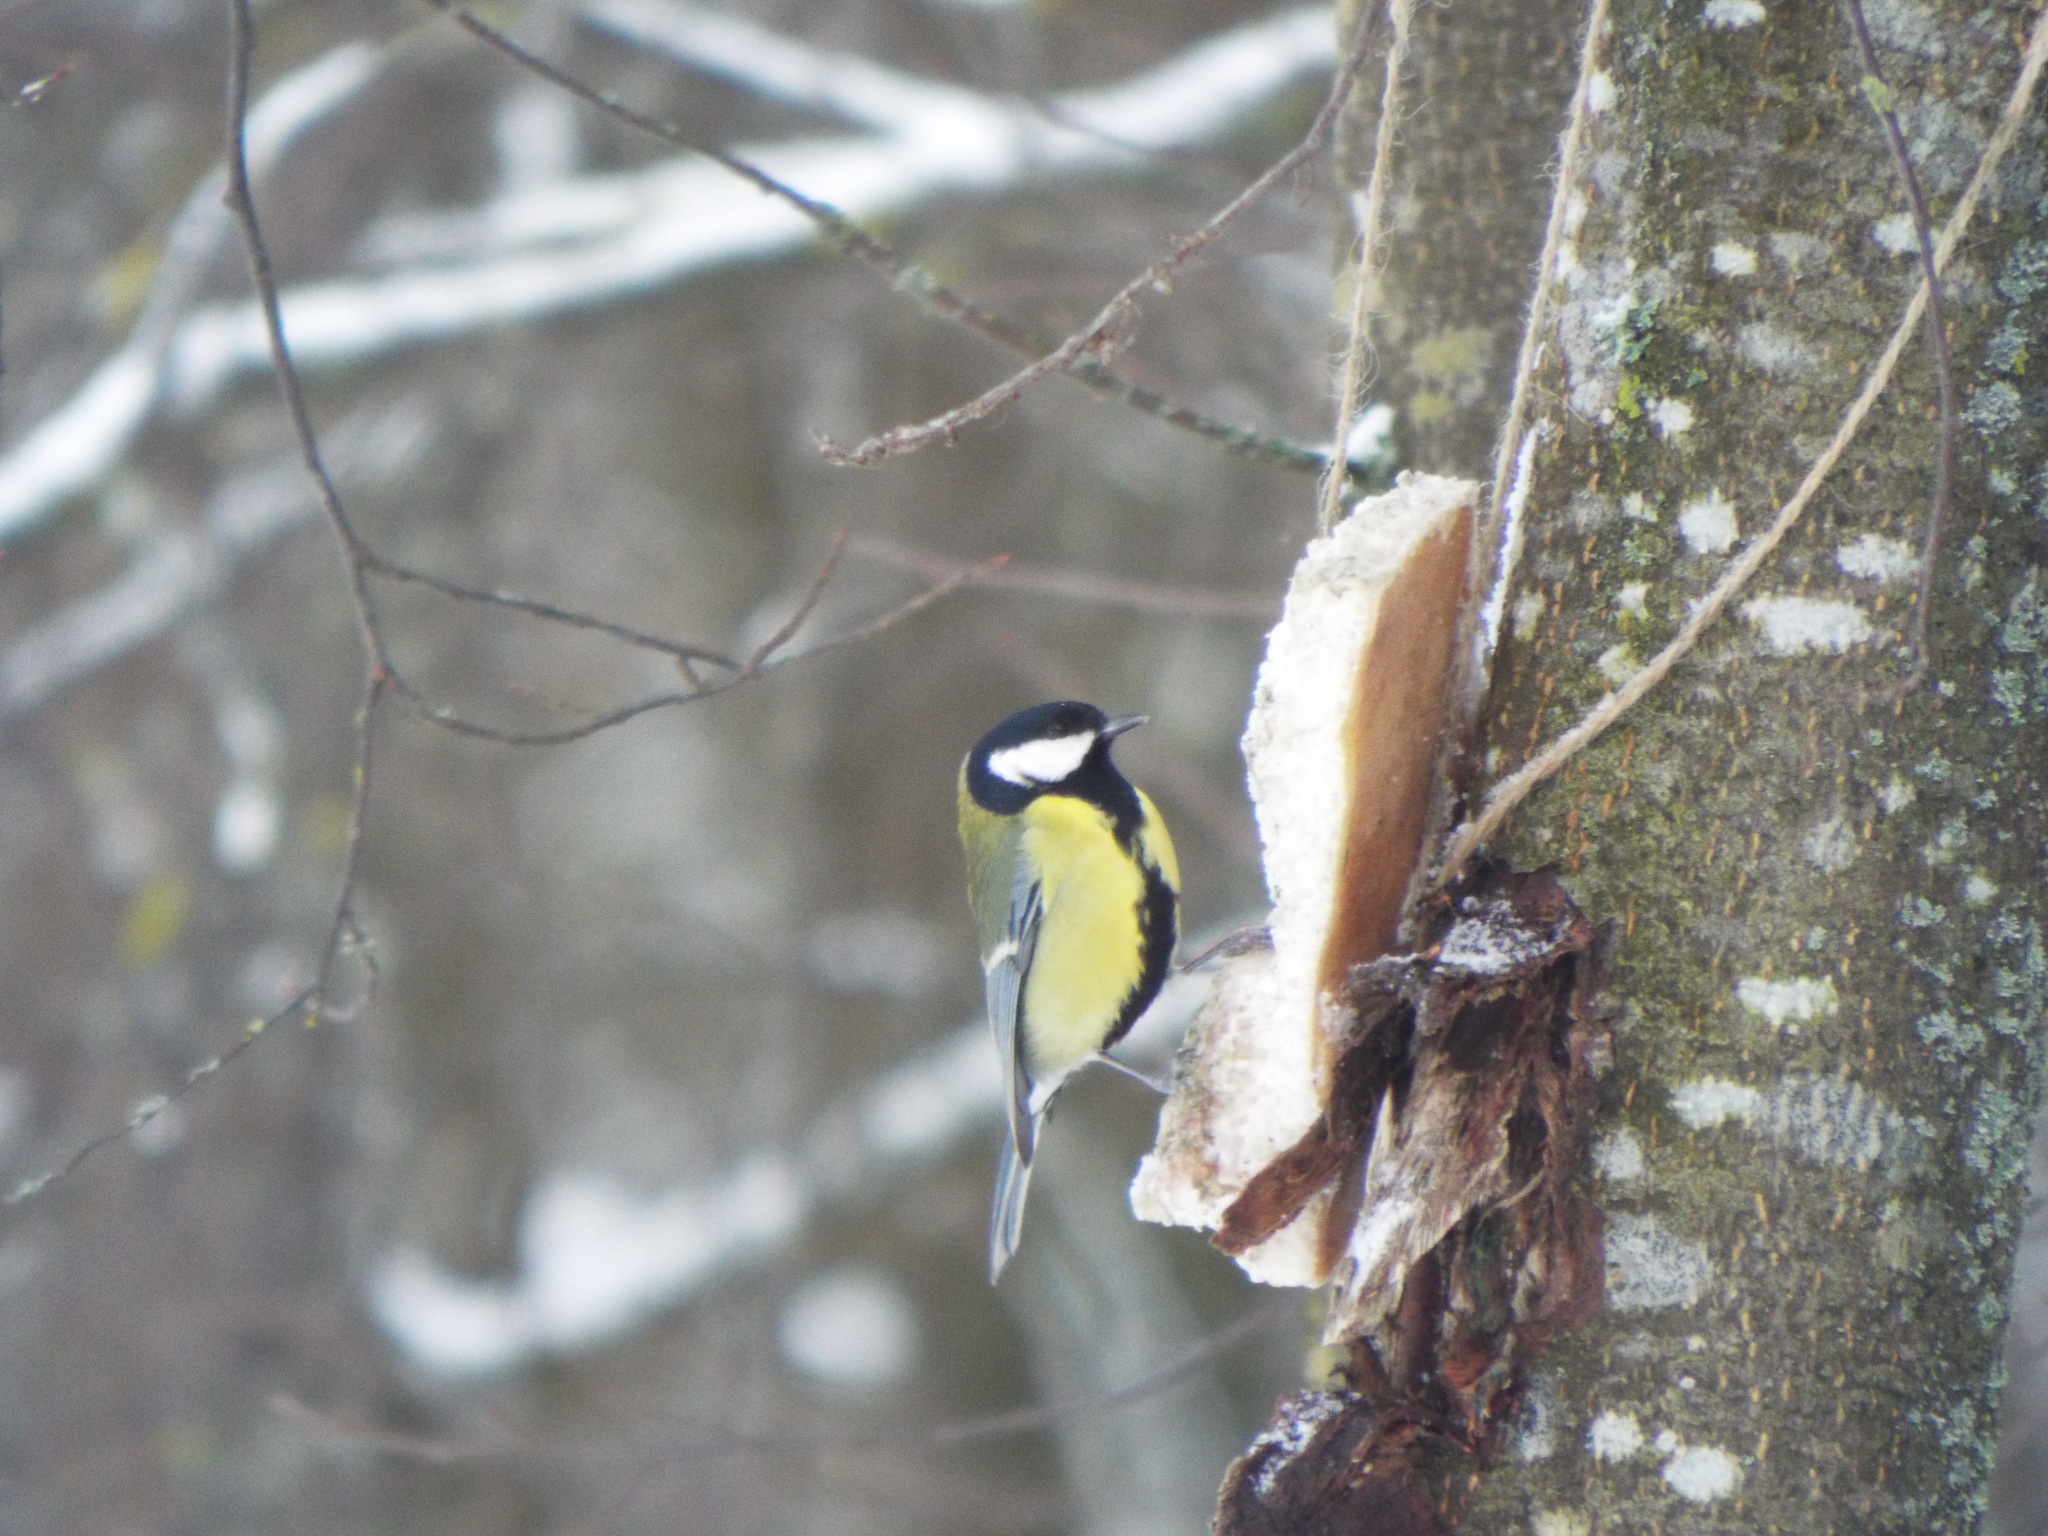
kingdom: Animalia
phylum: Chordata
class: Aves
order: Passeriformes
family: Paridae
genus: Parus
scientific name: Parus major
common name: Great tit
